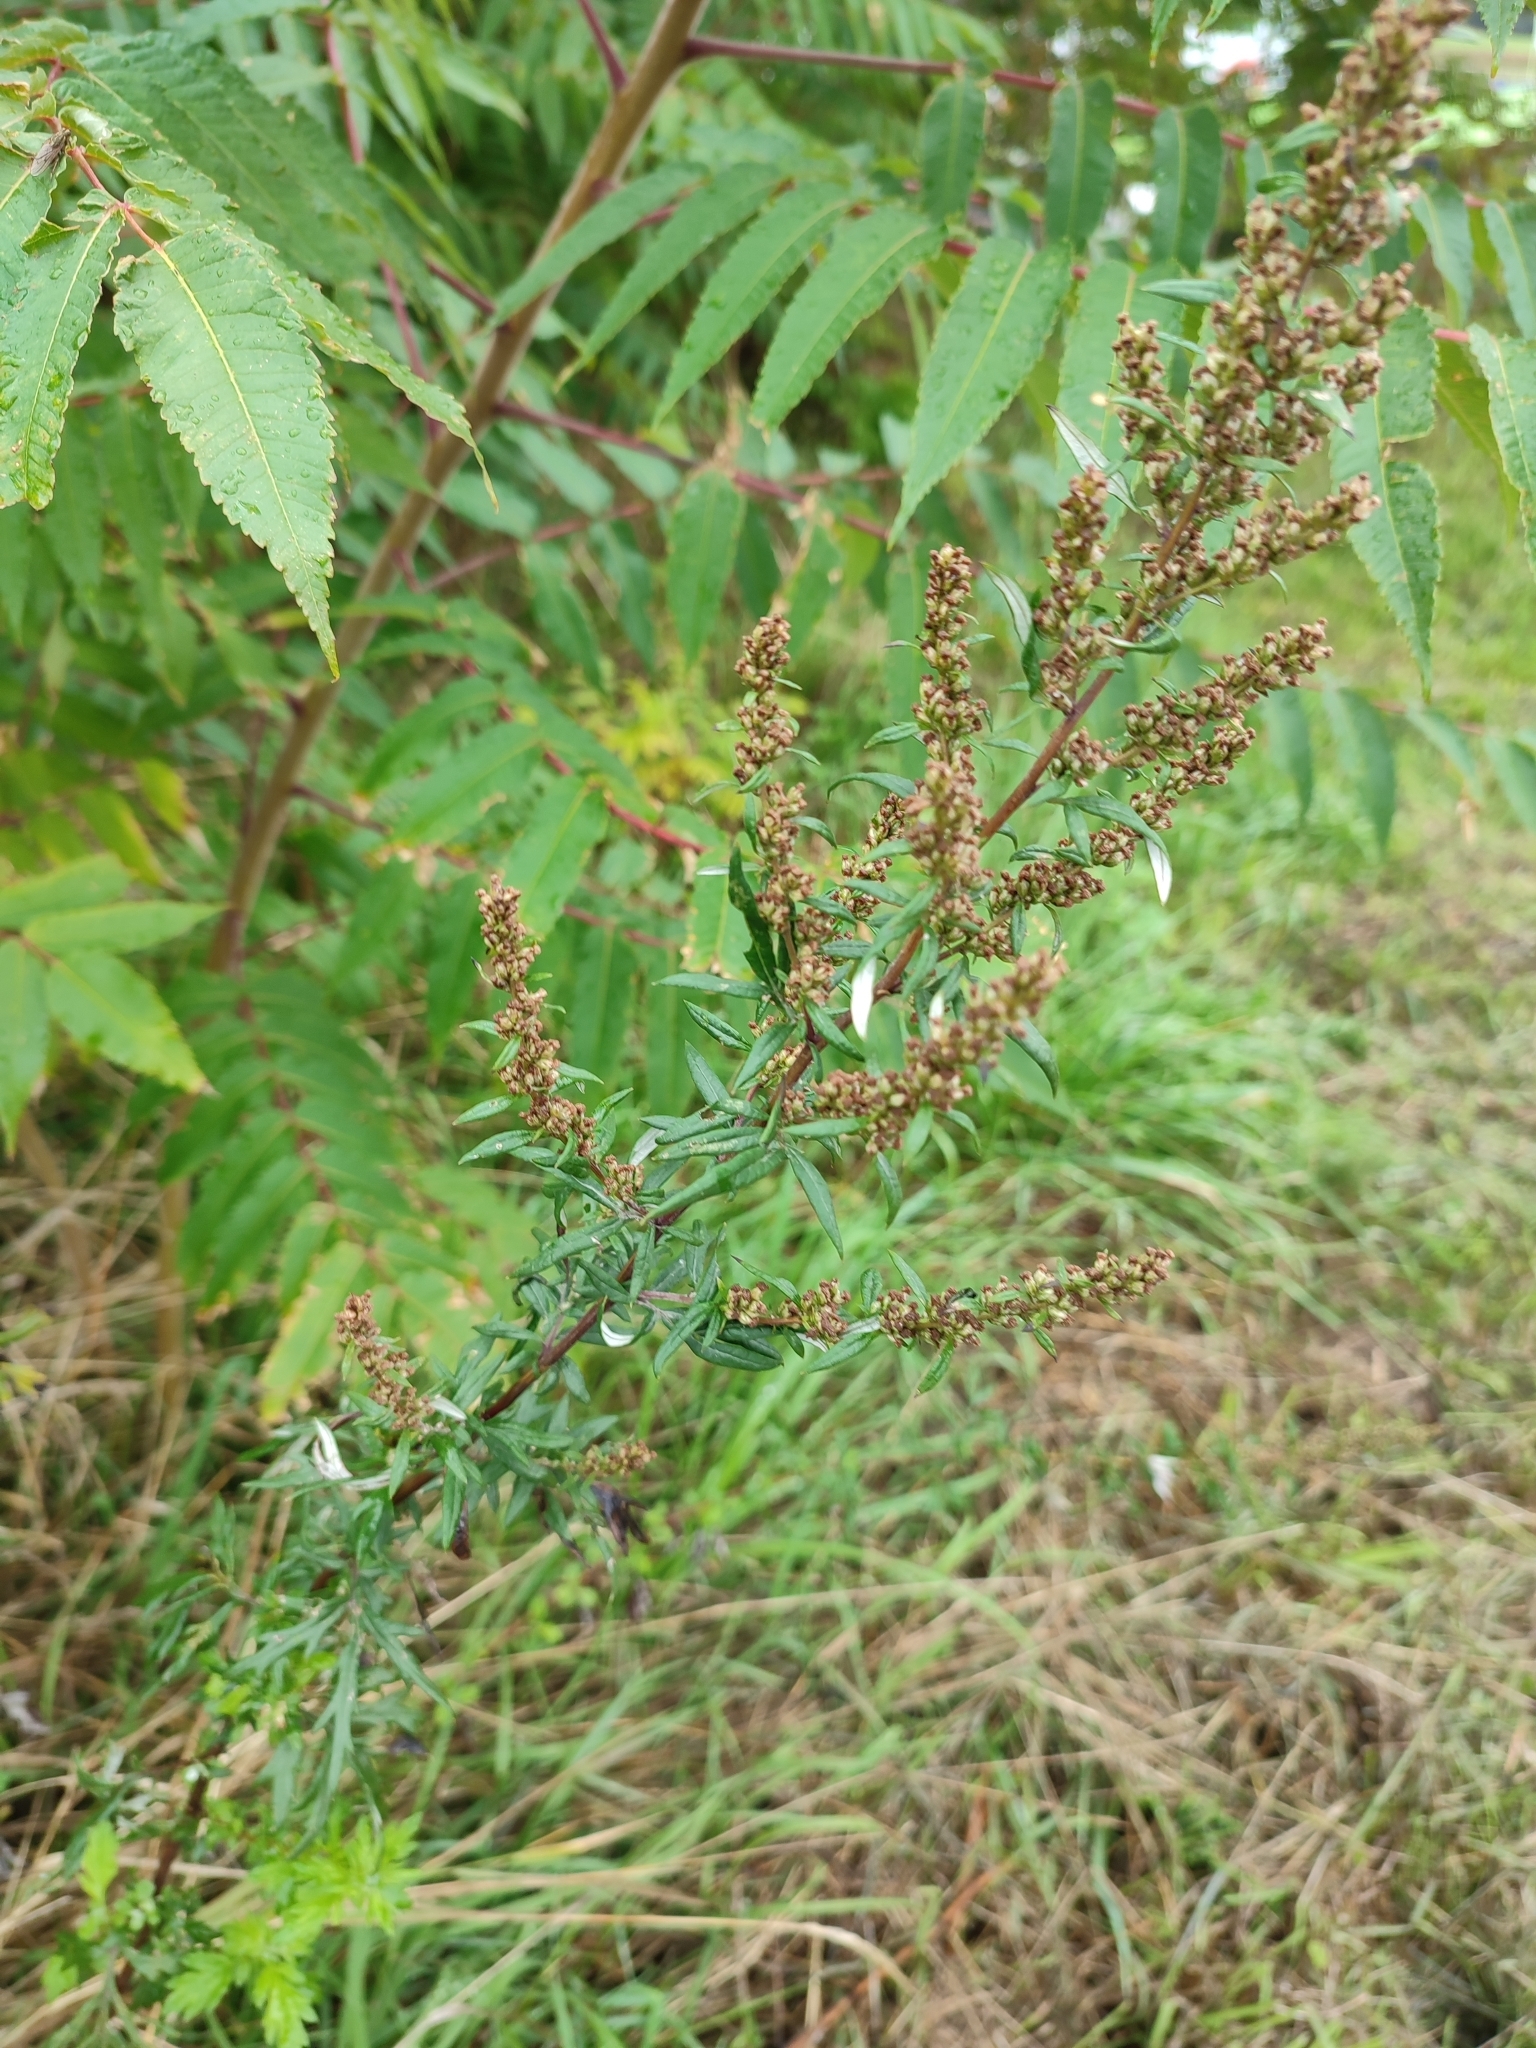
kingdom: Plantae
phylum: Tracheophyta
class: Magnoliopsida
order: Asterales
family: Asteraceae
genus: Artemisia
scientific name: Artemisia vulgaris
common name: Mugwort
